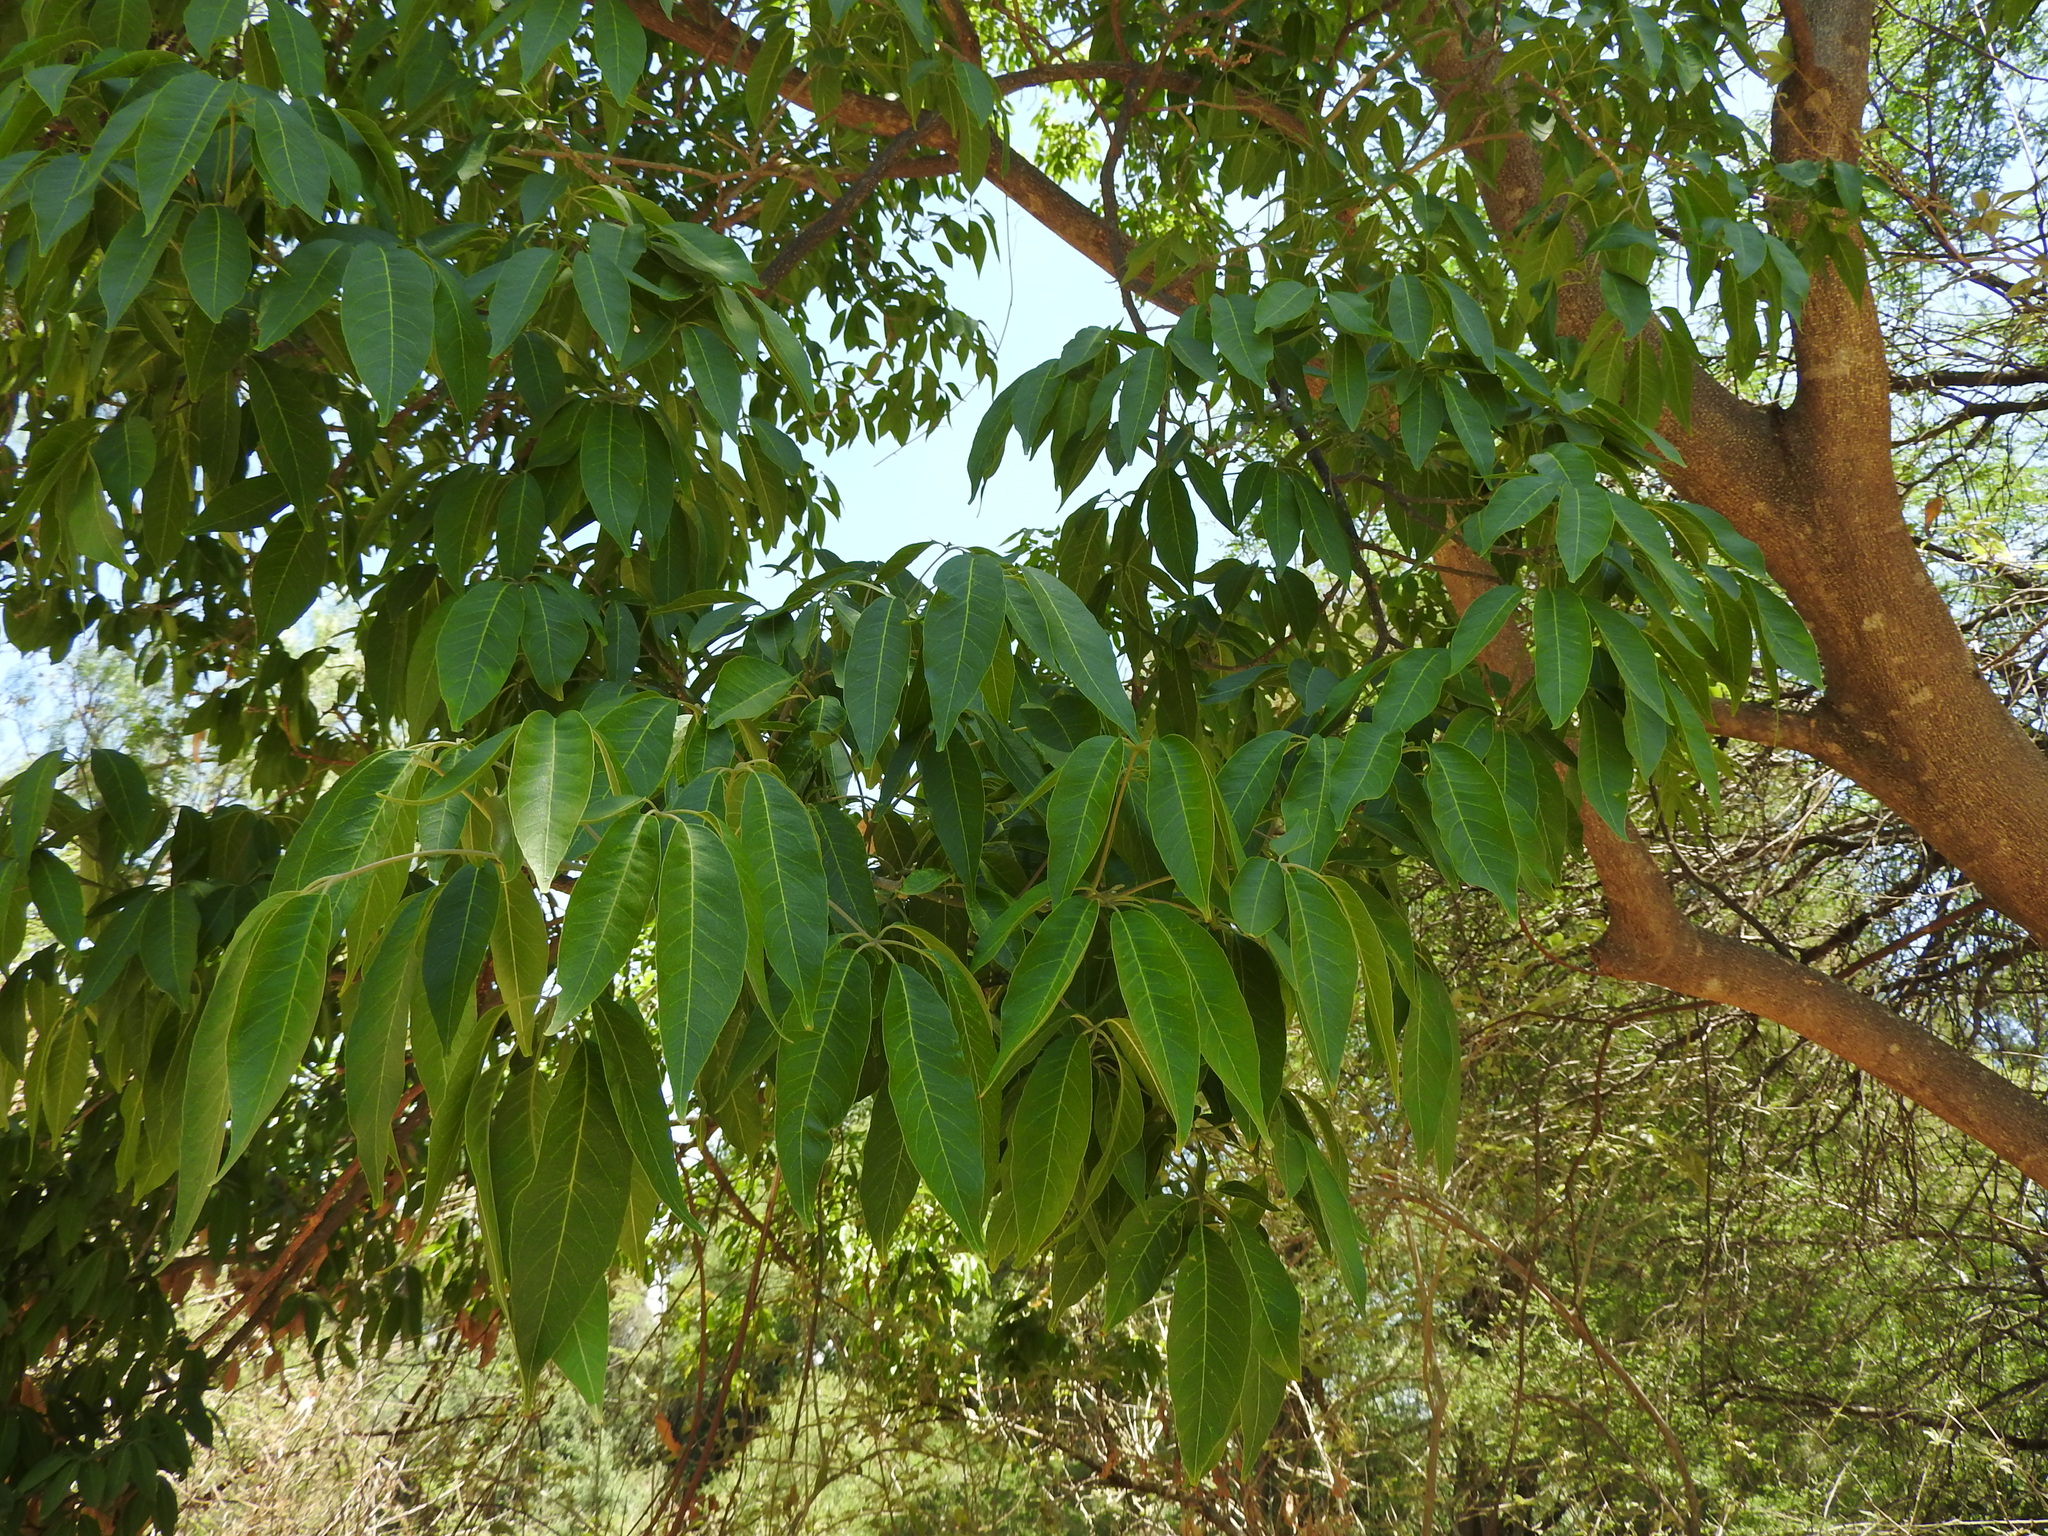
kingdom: Plantae
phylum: Tracheophyta
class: Magnoliopsida
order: Sapindales
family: Rutaceae
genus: Casimiroa
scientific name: Casimiroa edulis
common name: Mexican-apple
